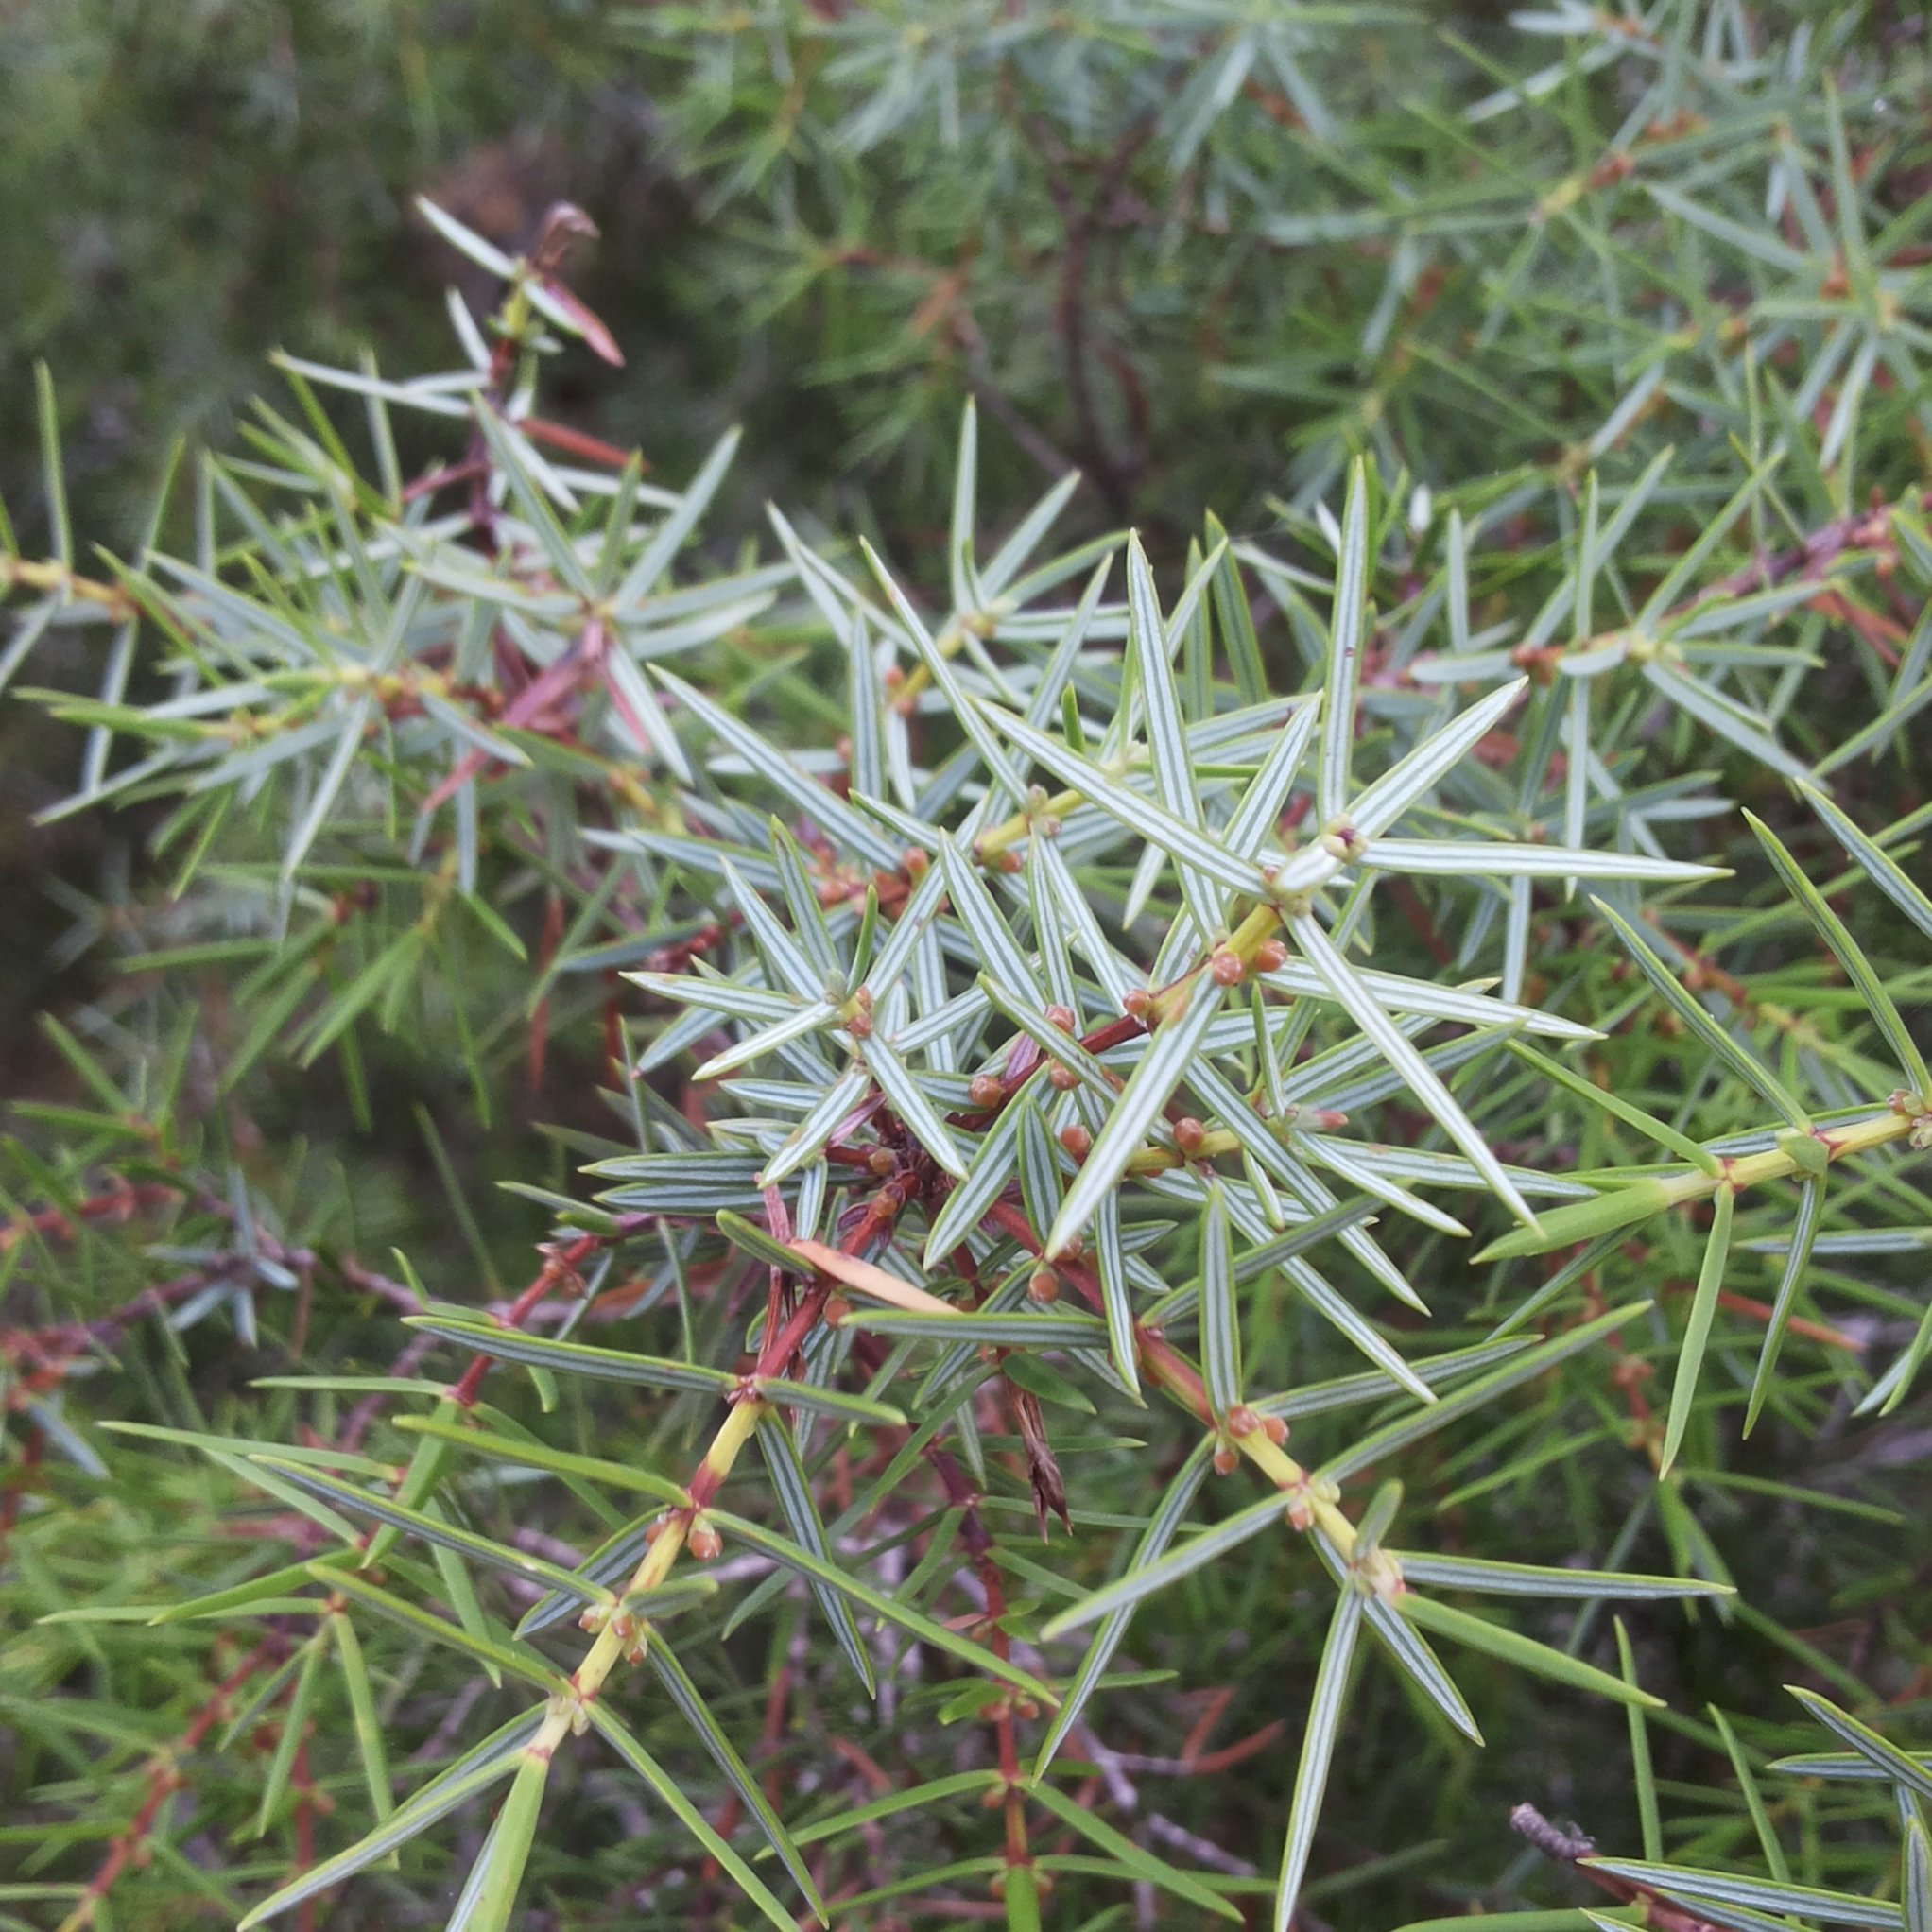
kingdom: Plantae
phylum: Tracheophyta
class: Pinopsida
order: Pinales
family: Cupressaceae
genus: Juniperus
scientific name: Juniperus oxycedrus
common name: Prickly juniper
